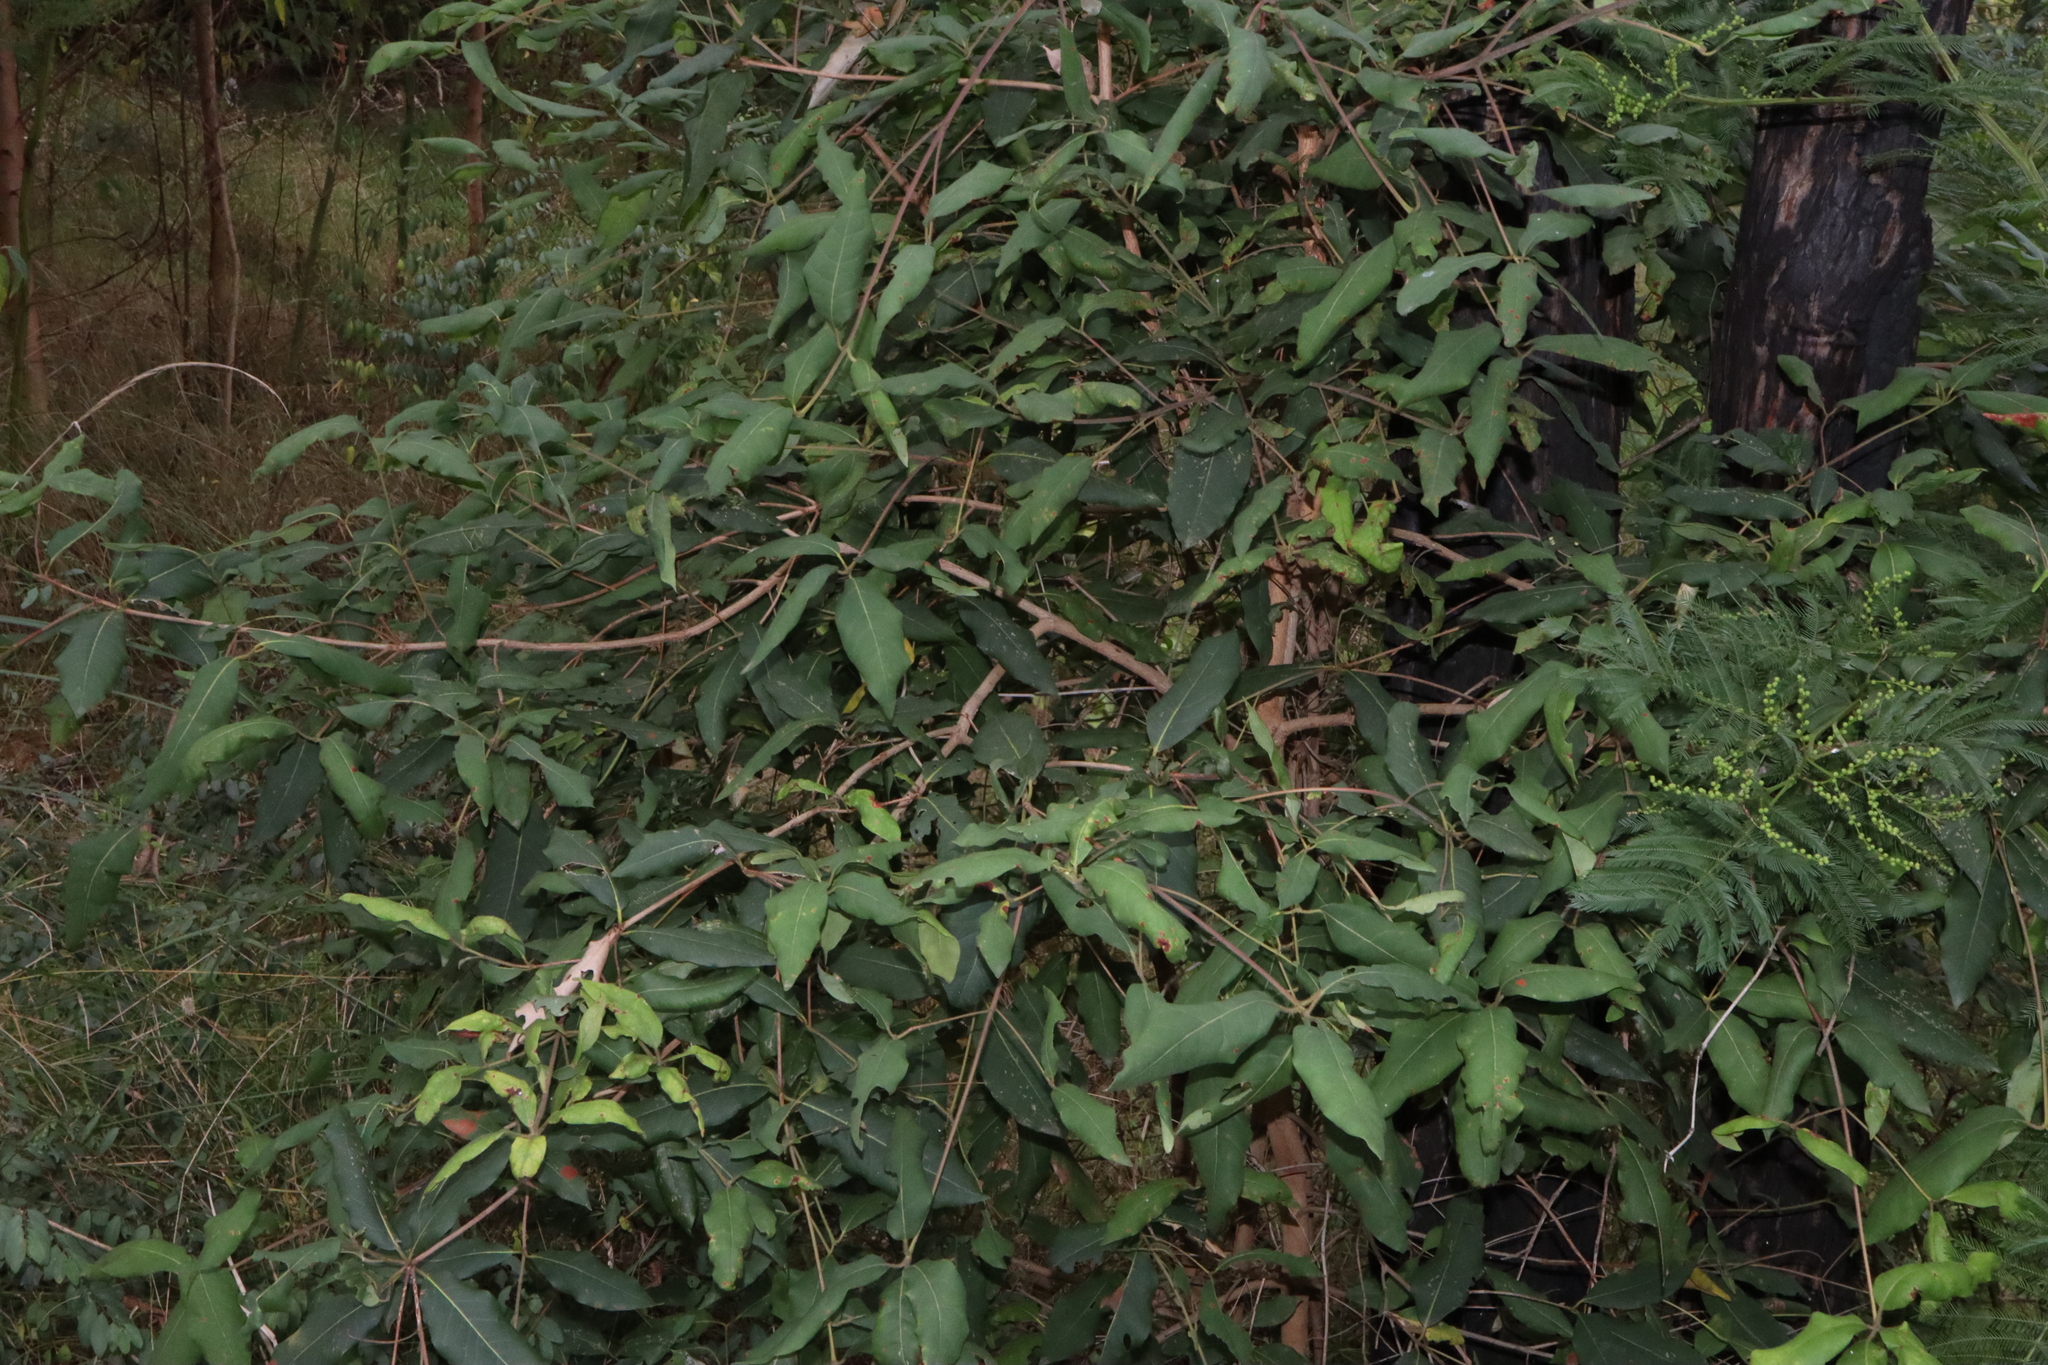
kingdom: Plantae
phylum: Tracheophyta
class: Magnoliopsida
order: Myrtales
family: Myrtaceae
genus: Syncarpia
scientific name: Syncarpia glomulifera
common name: Turpentine tree
